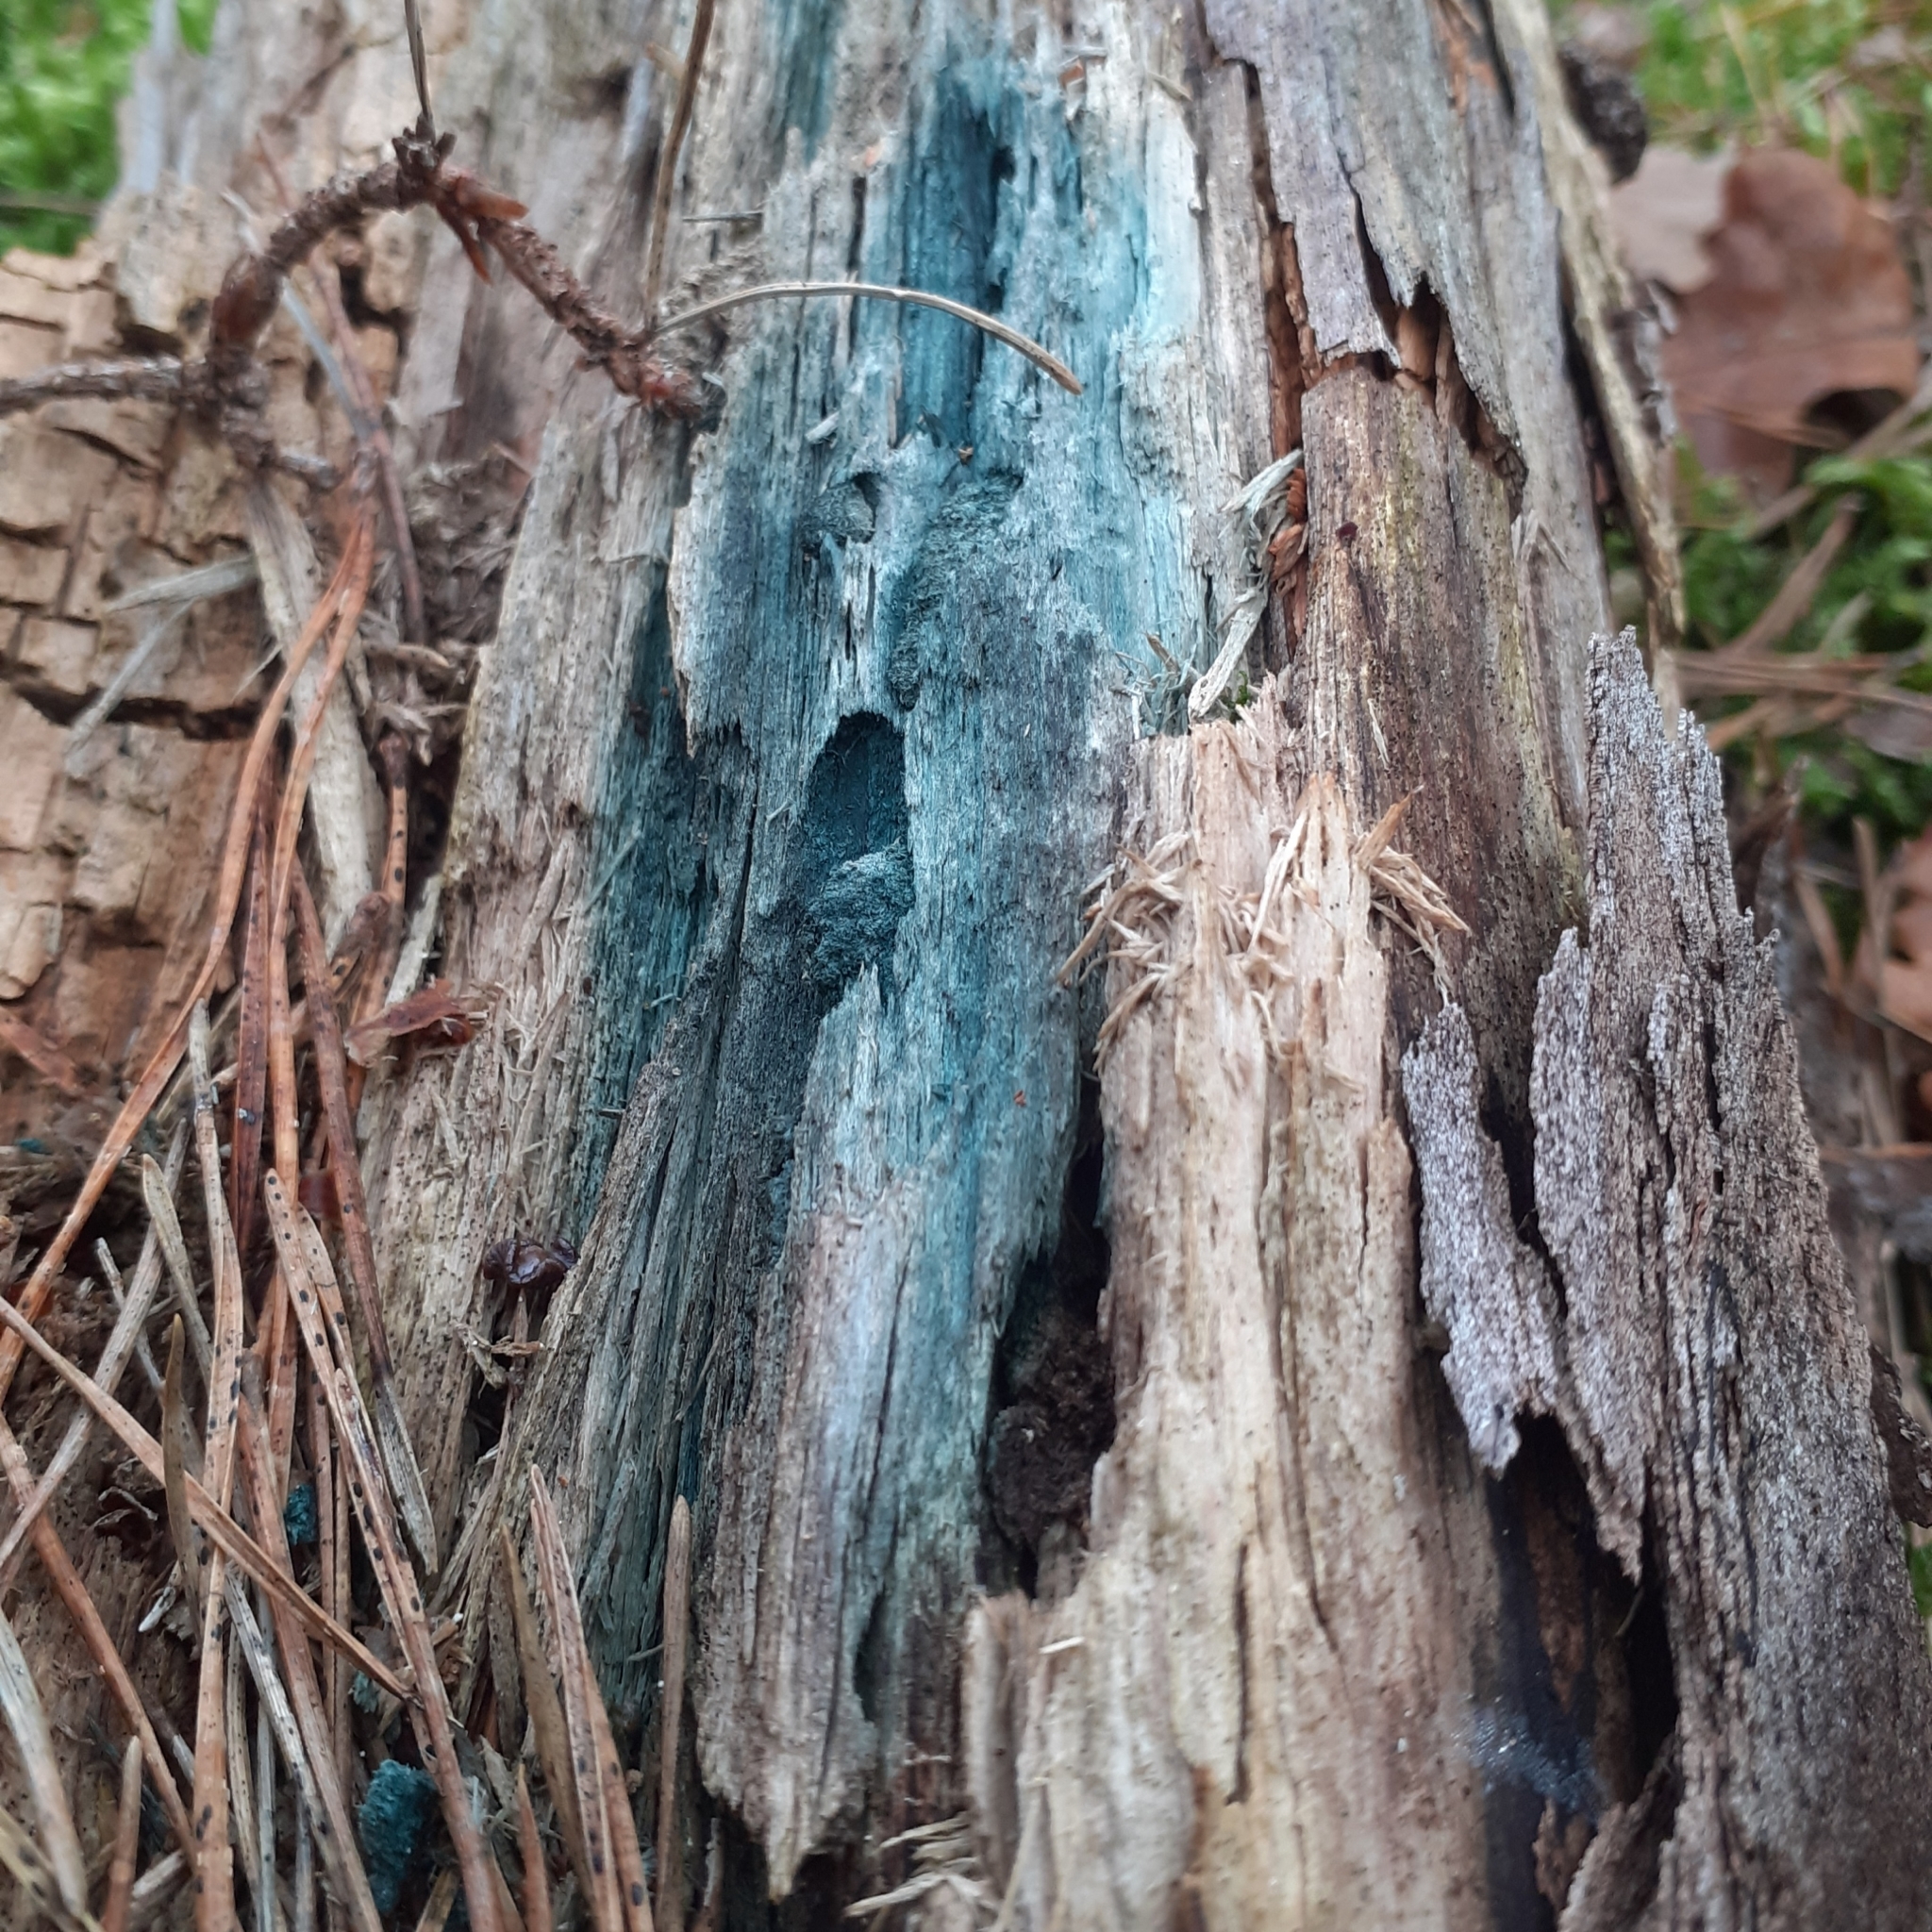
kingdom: Fungi
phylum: Ascomycota
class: Leotiomycetes
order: Helotiales
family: Chlorociboriaceae
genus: Chlorociboria
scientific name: Chlorociboria
